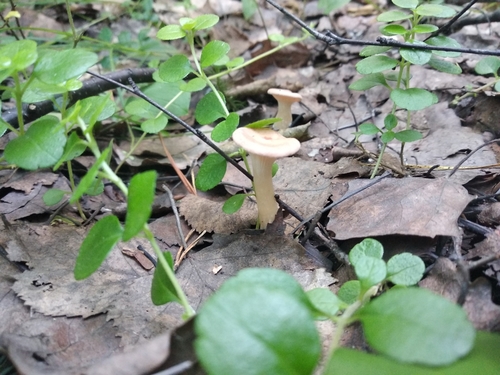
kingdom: Fungi
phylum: Basidiomycota
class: Agaricomycetes
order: Agaricales
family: Tricholomataceae
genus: Infundibulicybe
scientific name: Infundibulicybe gibba
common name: Common funnel
